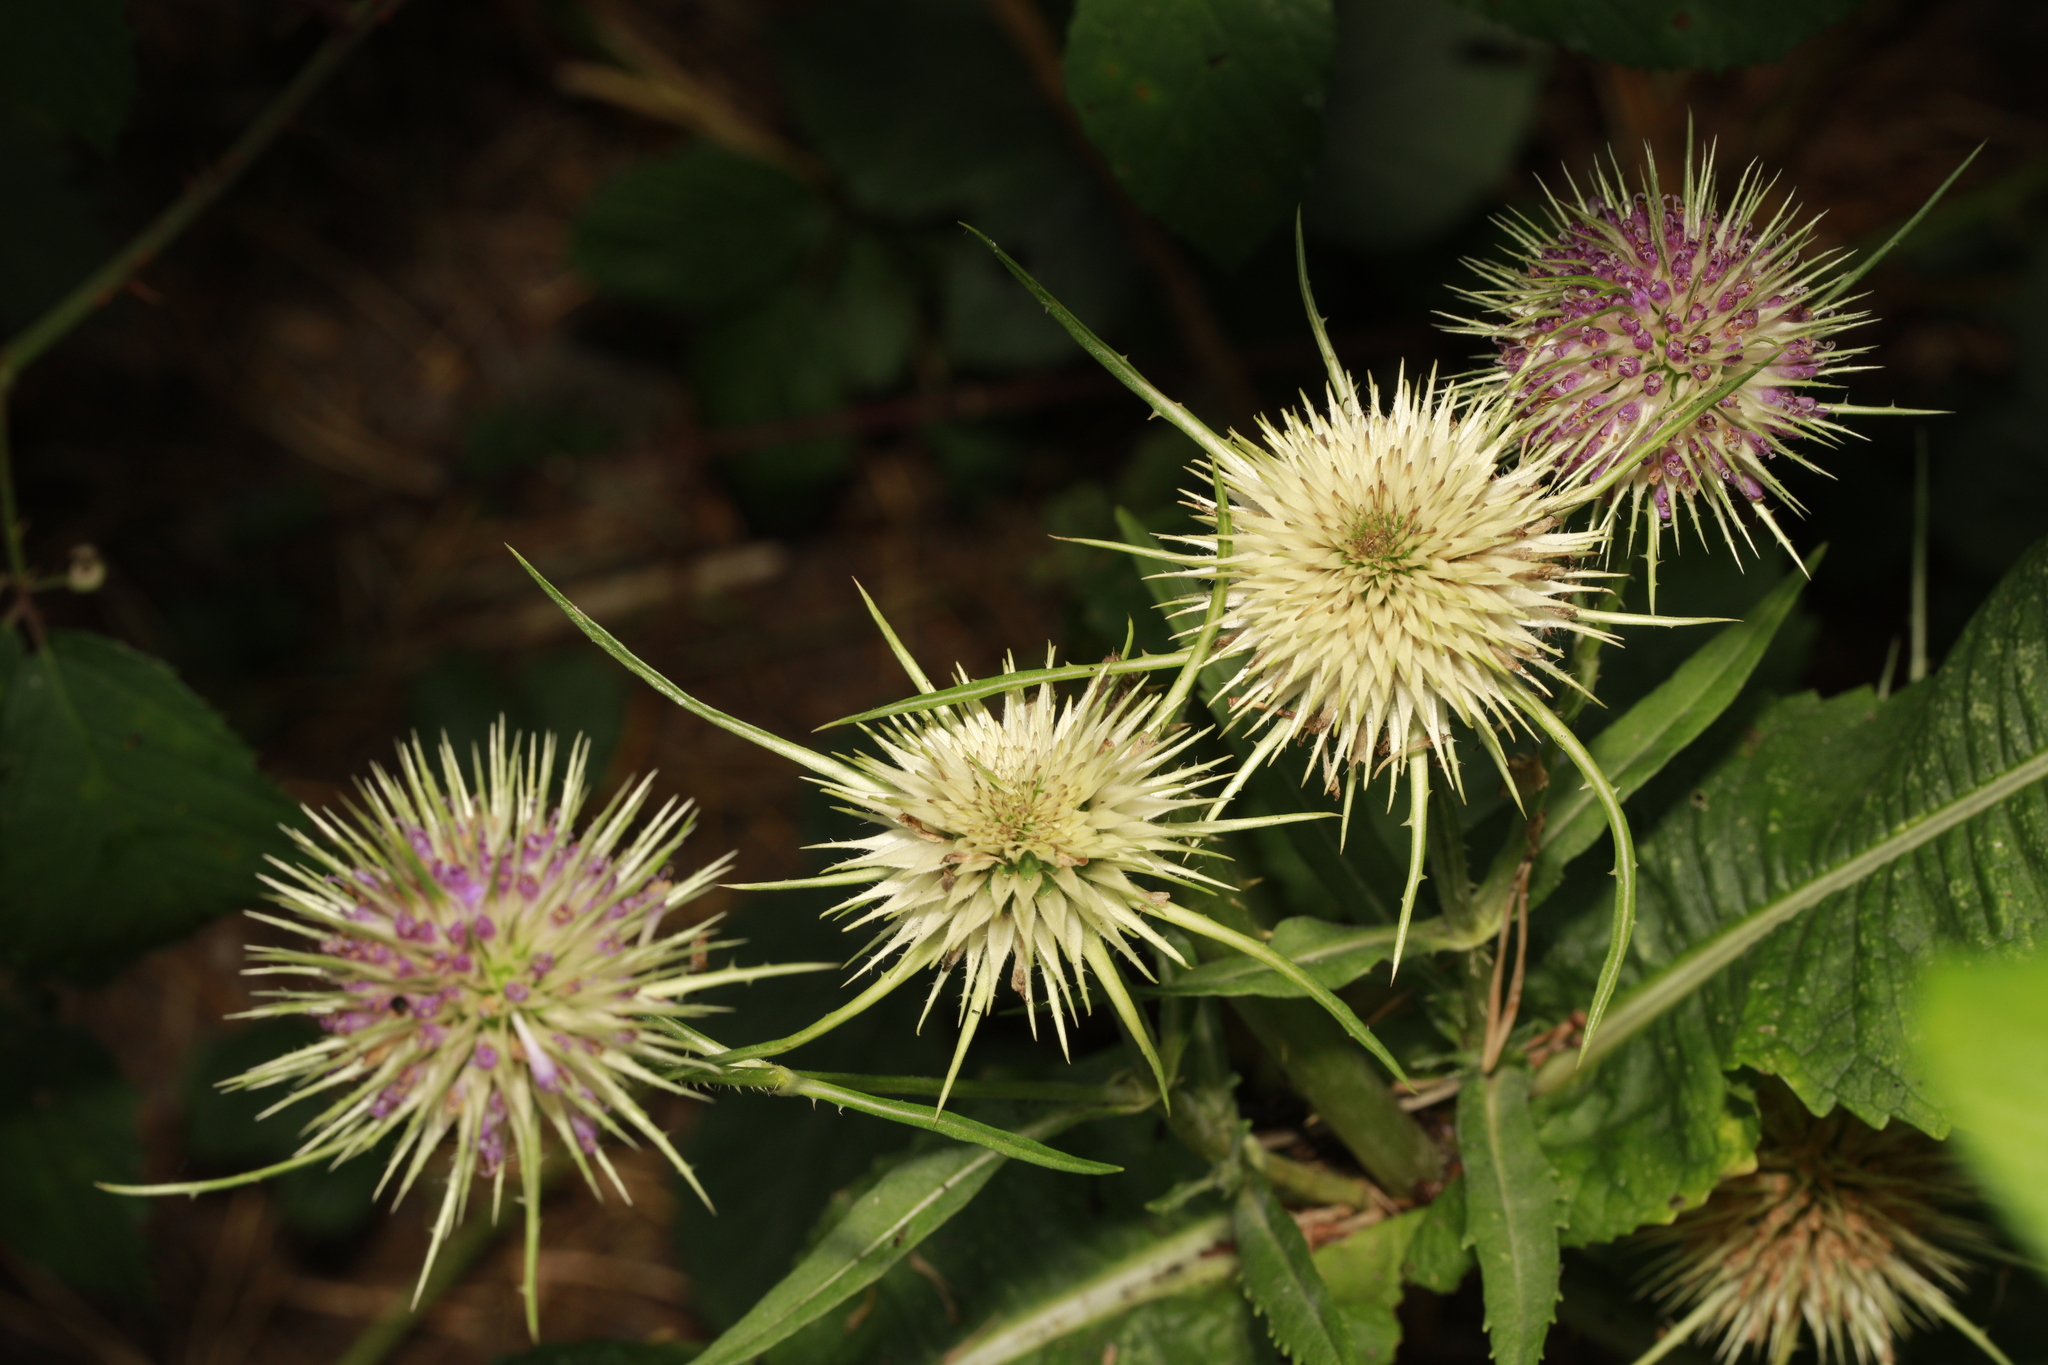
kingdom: Plantae
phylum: Tracheophyta
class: Magnoliopsida
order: Dipsacales
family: Caprifoliaceae
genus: Dipsacus
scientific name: Dipsacus fullonum
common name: Teasel
